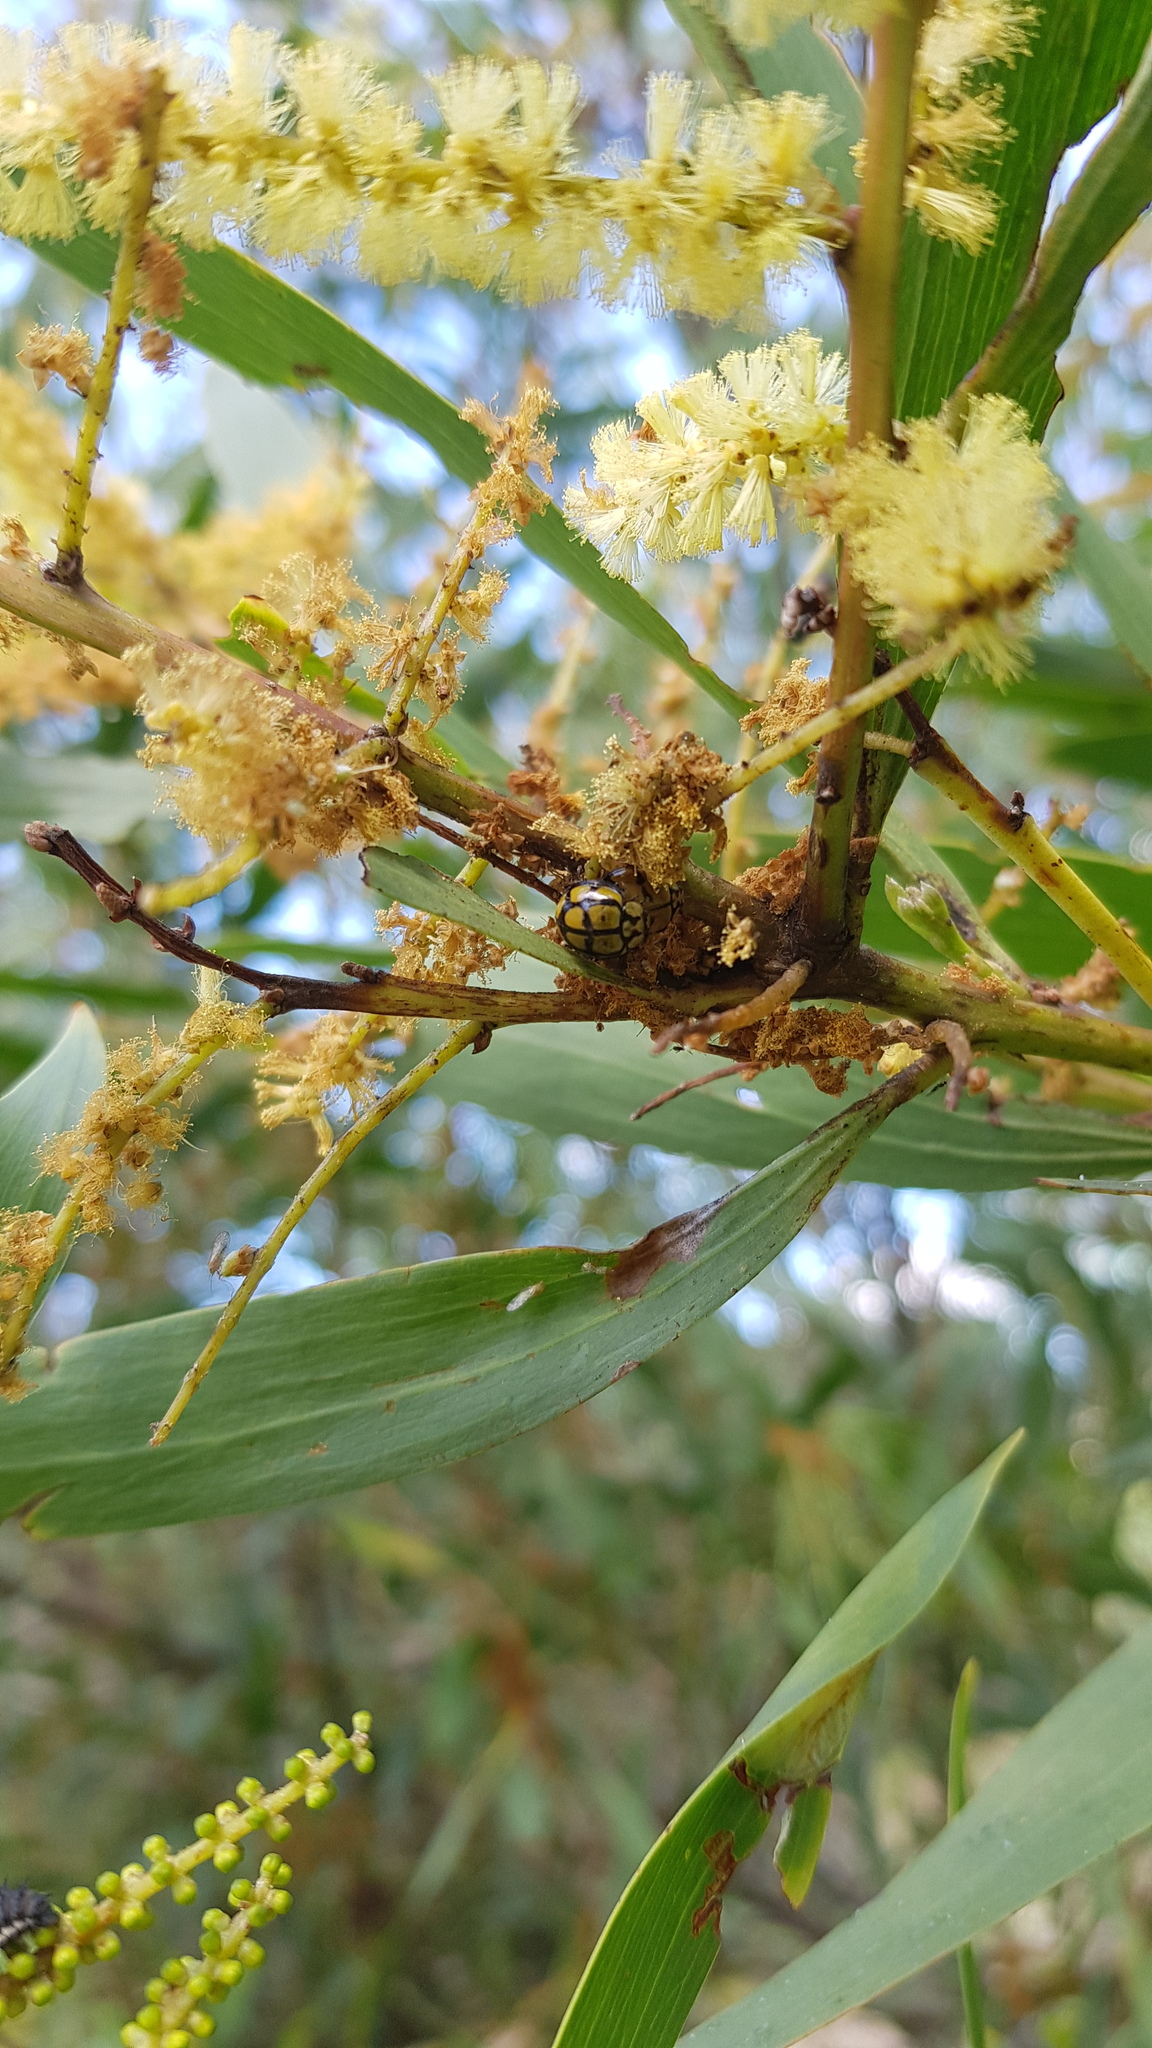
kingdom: Animalia
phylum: Arthropoda
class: Insecta
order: Coleoptera
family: Coccinellidae
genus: Harmonia
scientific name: Harmonia
